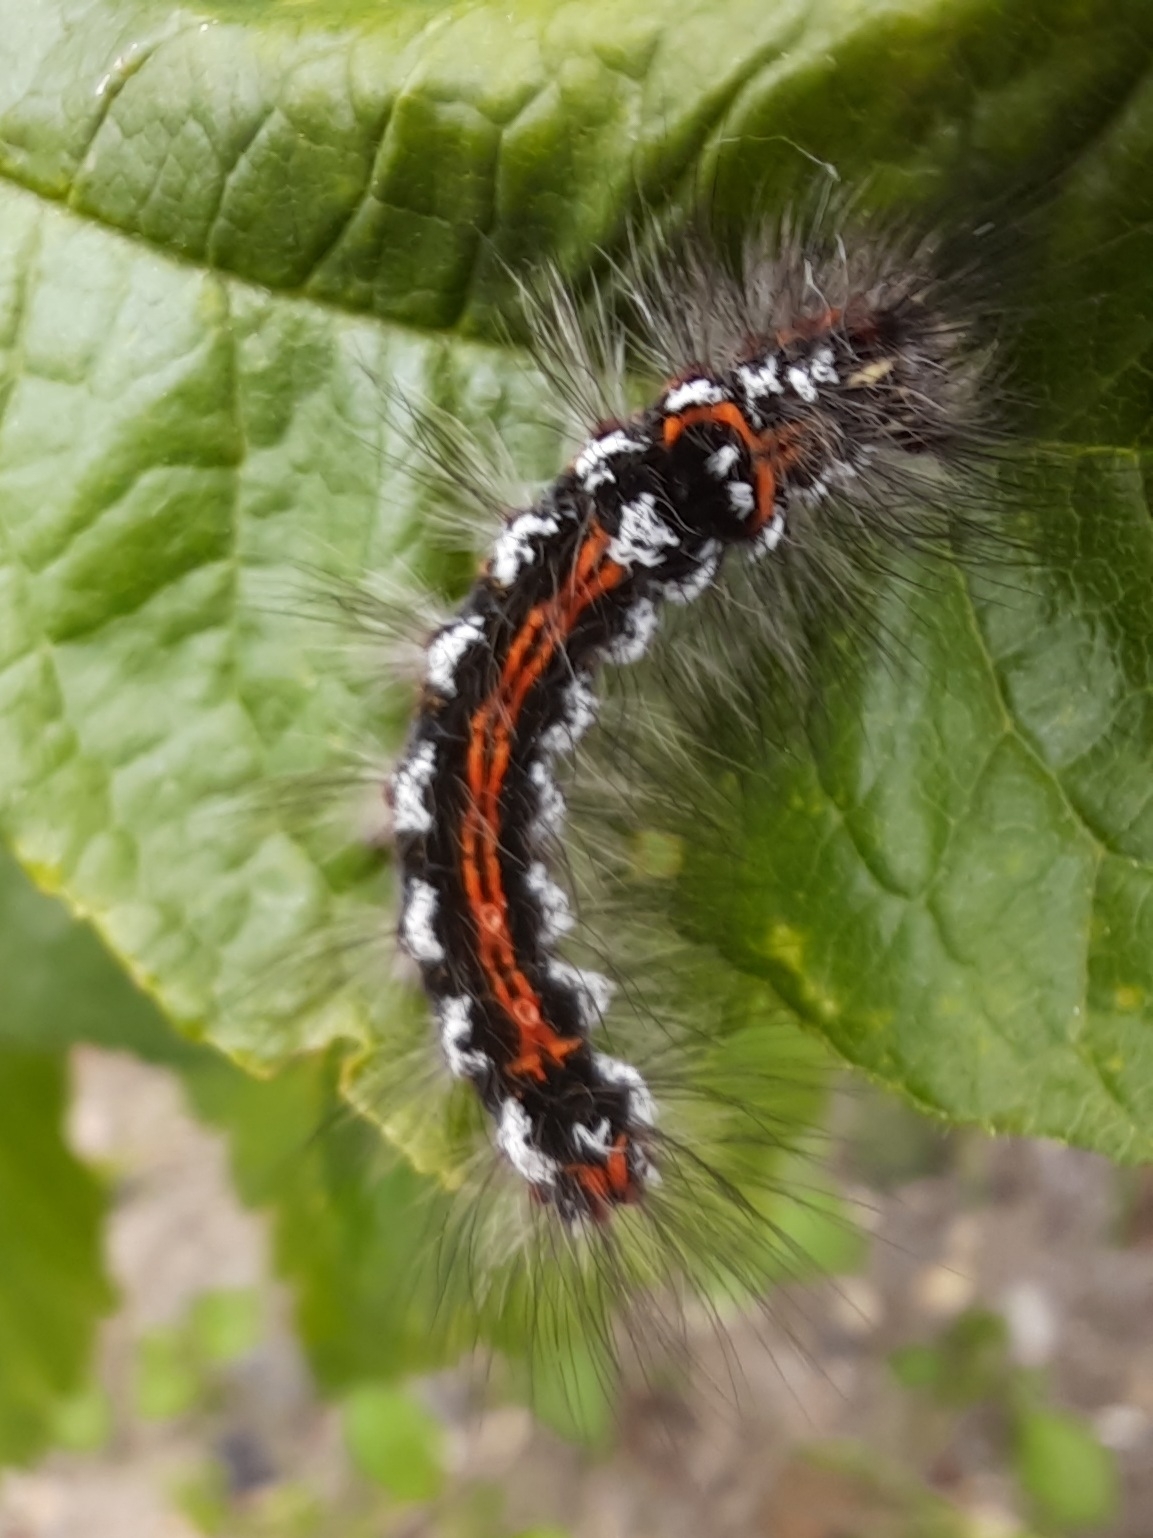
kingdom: Animalia
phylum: Arthropoda
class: Insecta
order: Lepidoptera
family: Erebidae
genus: Sphrageidus
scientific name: Sphrageidus similis
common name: Yellow-tail
